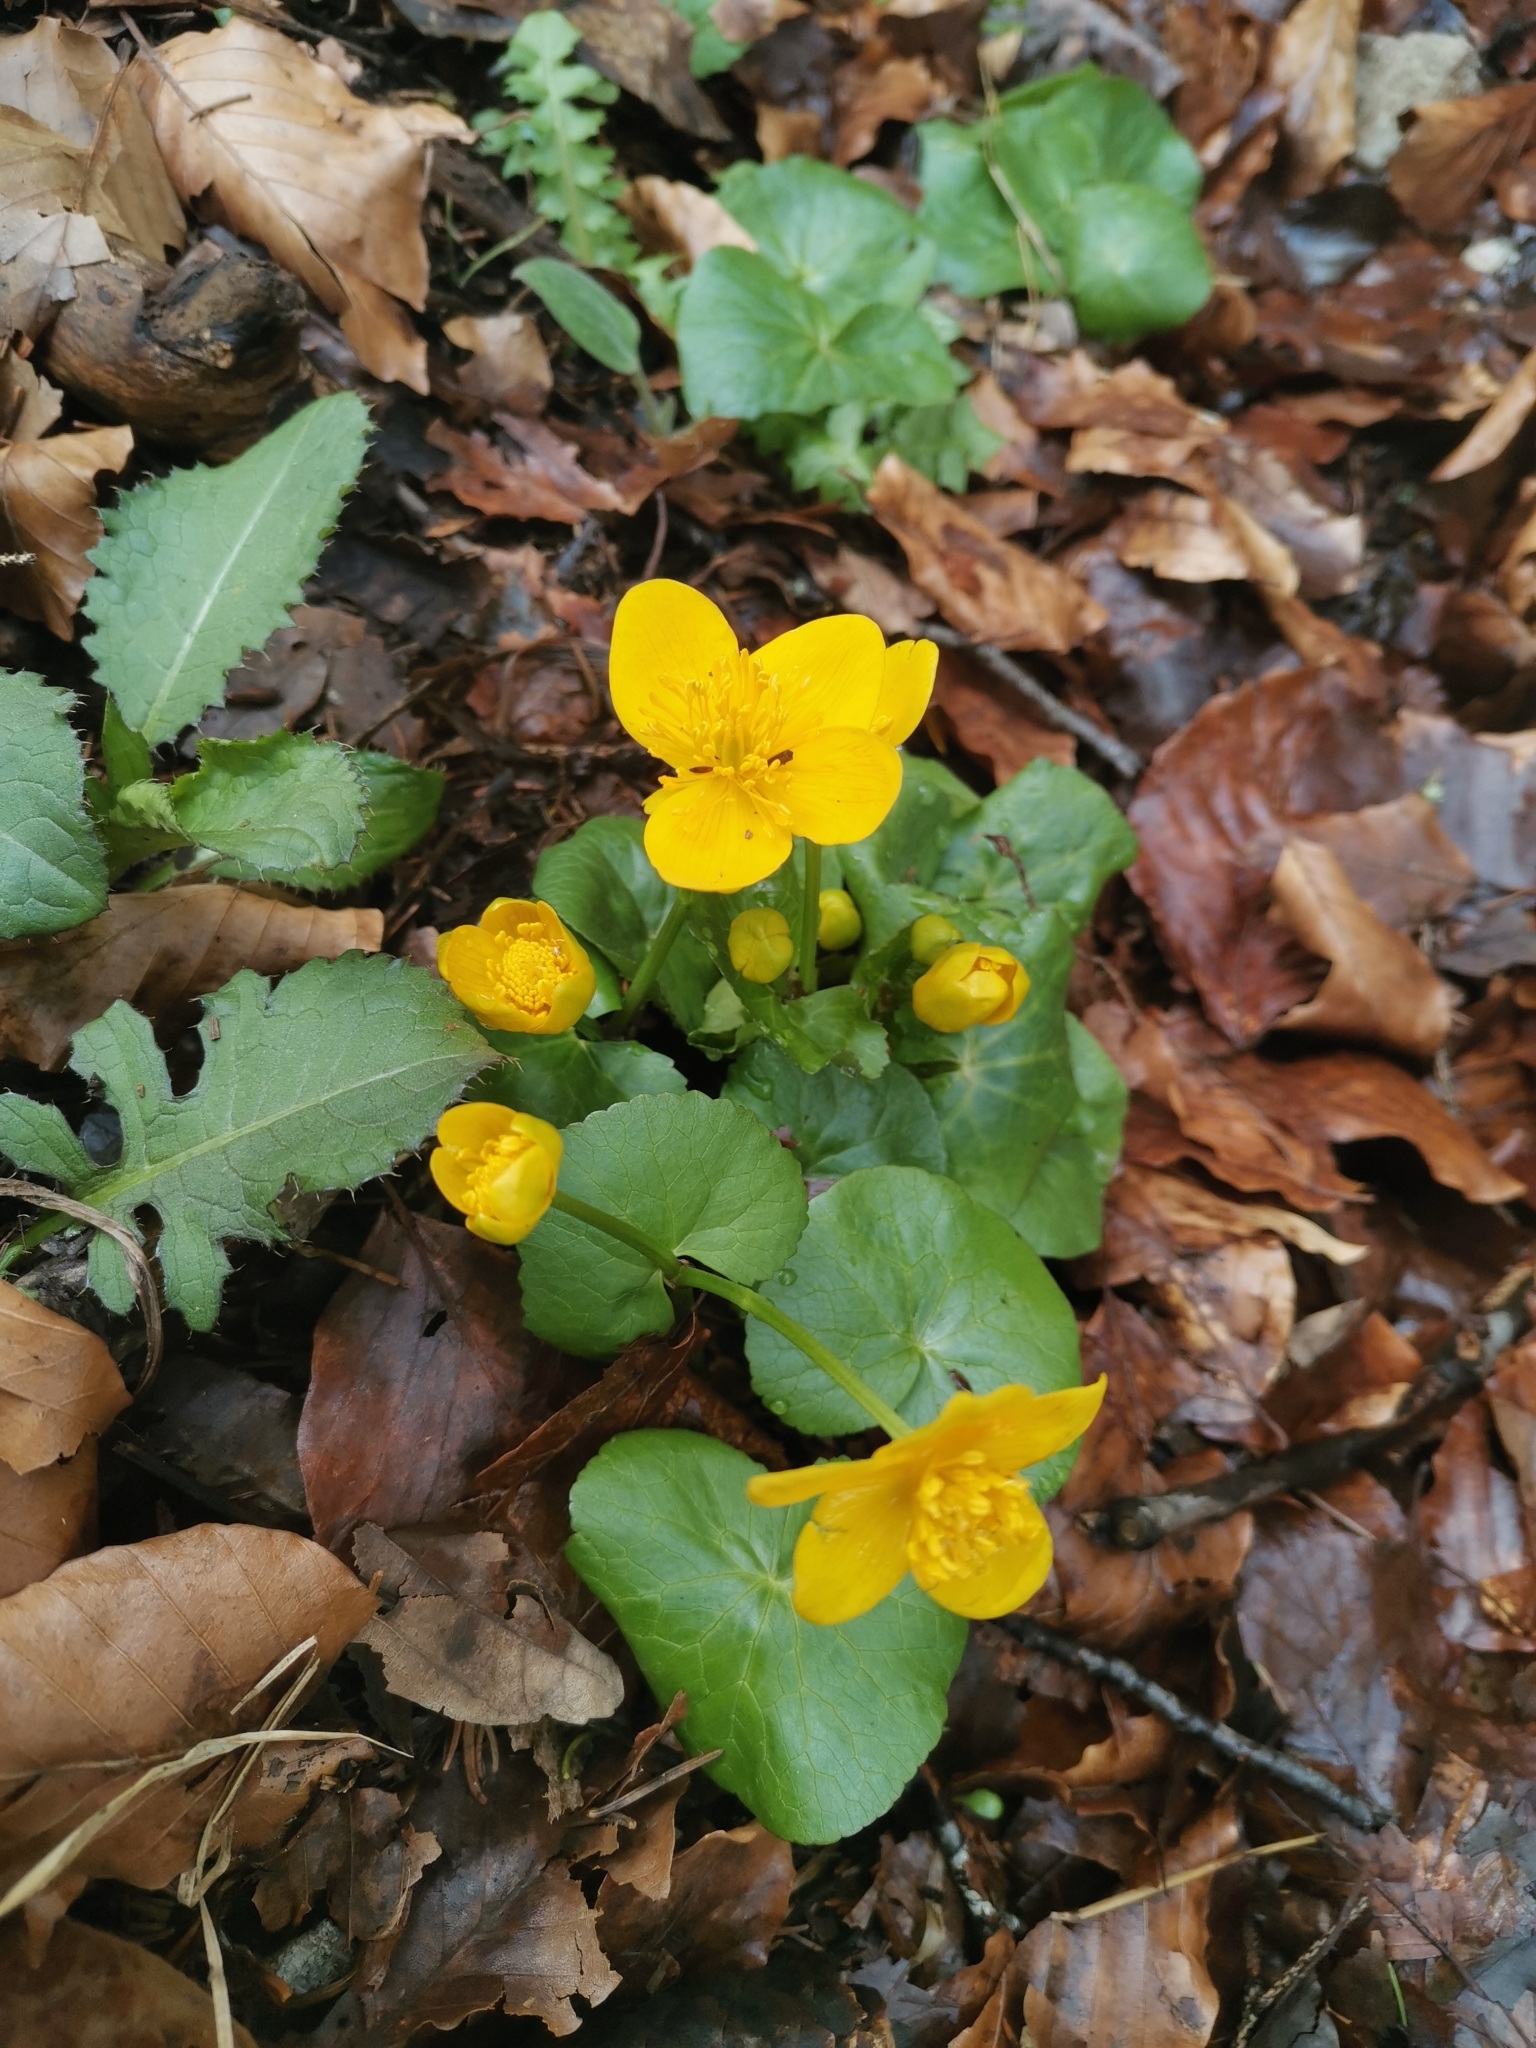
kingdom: Plantae
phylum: Tracheophyta
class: Magnoliopsida
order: Ranunculales
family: Ranunculaceae
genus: Caltha
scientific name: Caltha palustris
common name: Marsh marigold
